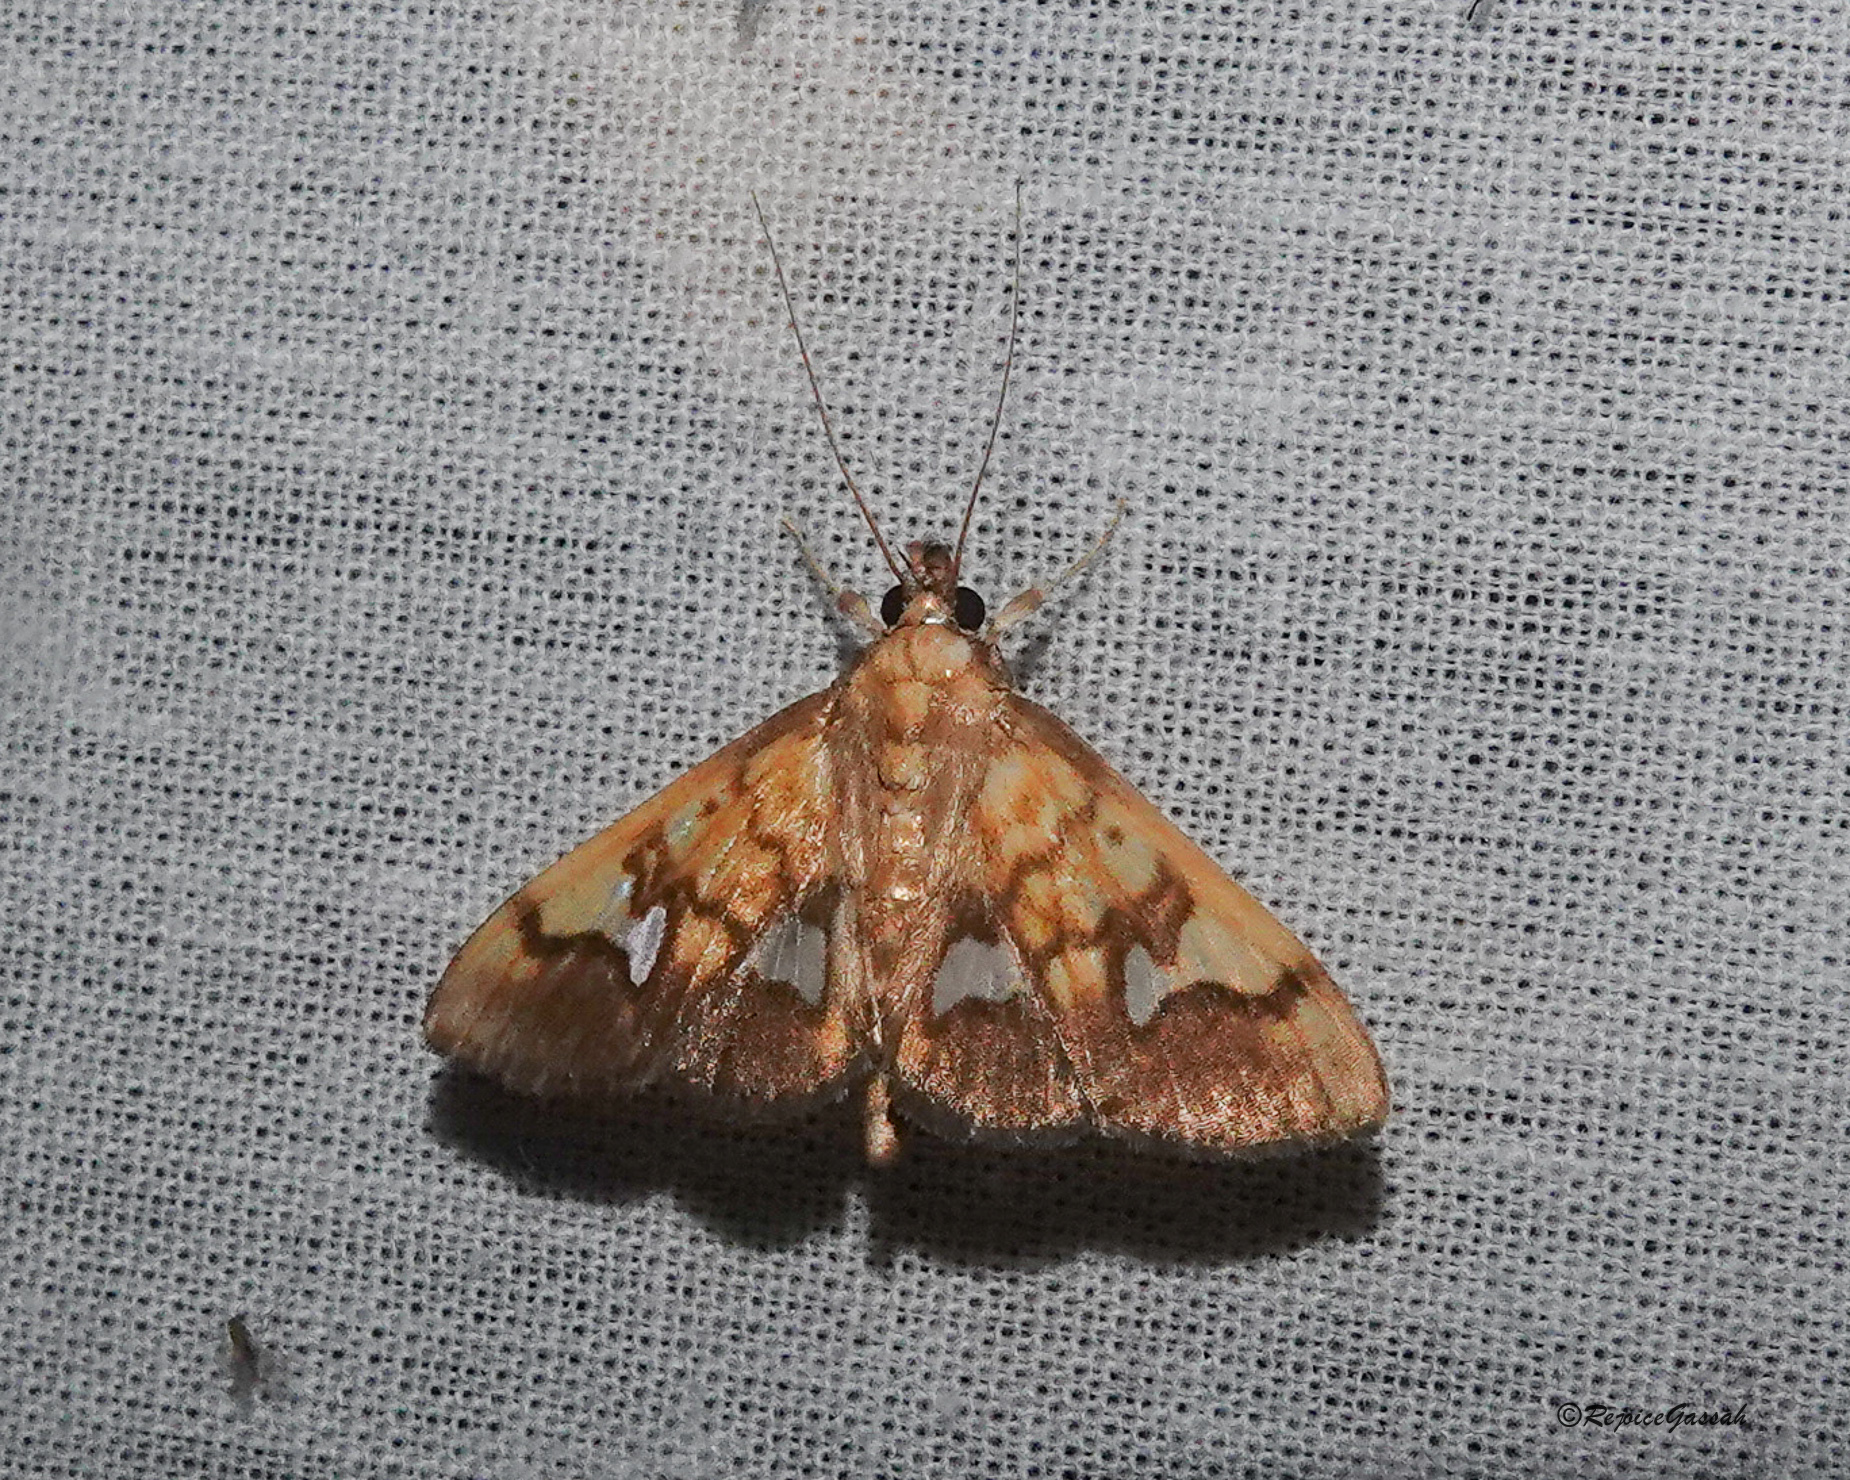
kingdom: Animalia
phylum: Arthropoda
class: Insecta
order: Lepidoptera
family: Crambidae
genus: Nosophora
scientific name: Nosophora semitritalis
